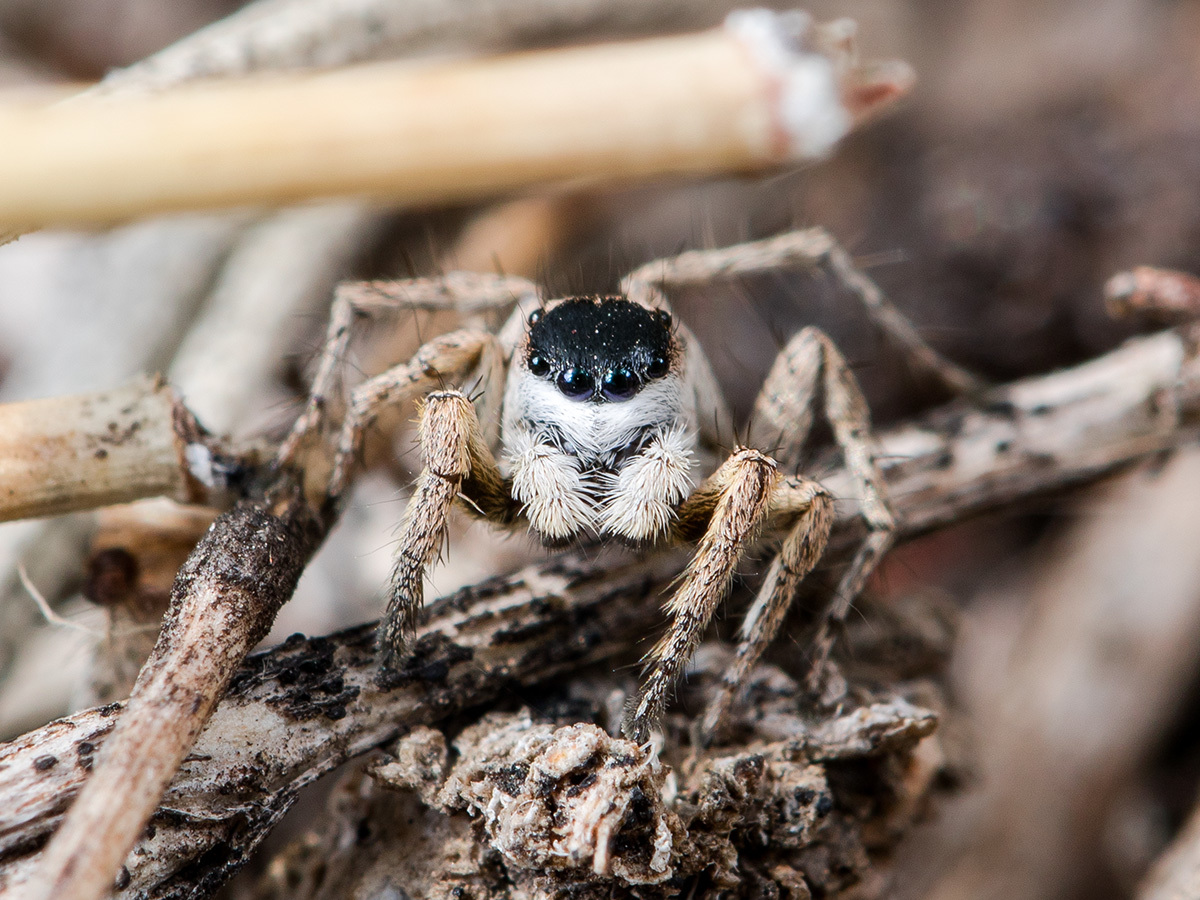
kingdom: Animalia
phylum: Arthropoda
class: Arachnida
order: Araneae
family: Salticidae
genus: Aelurillus
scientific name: Aelurillus m-nigrum
